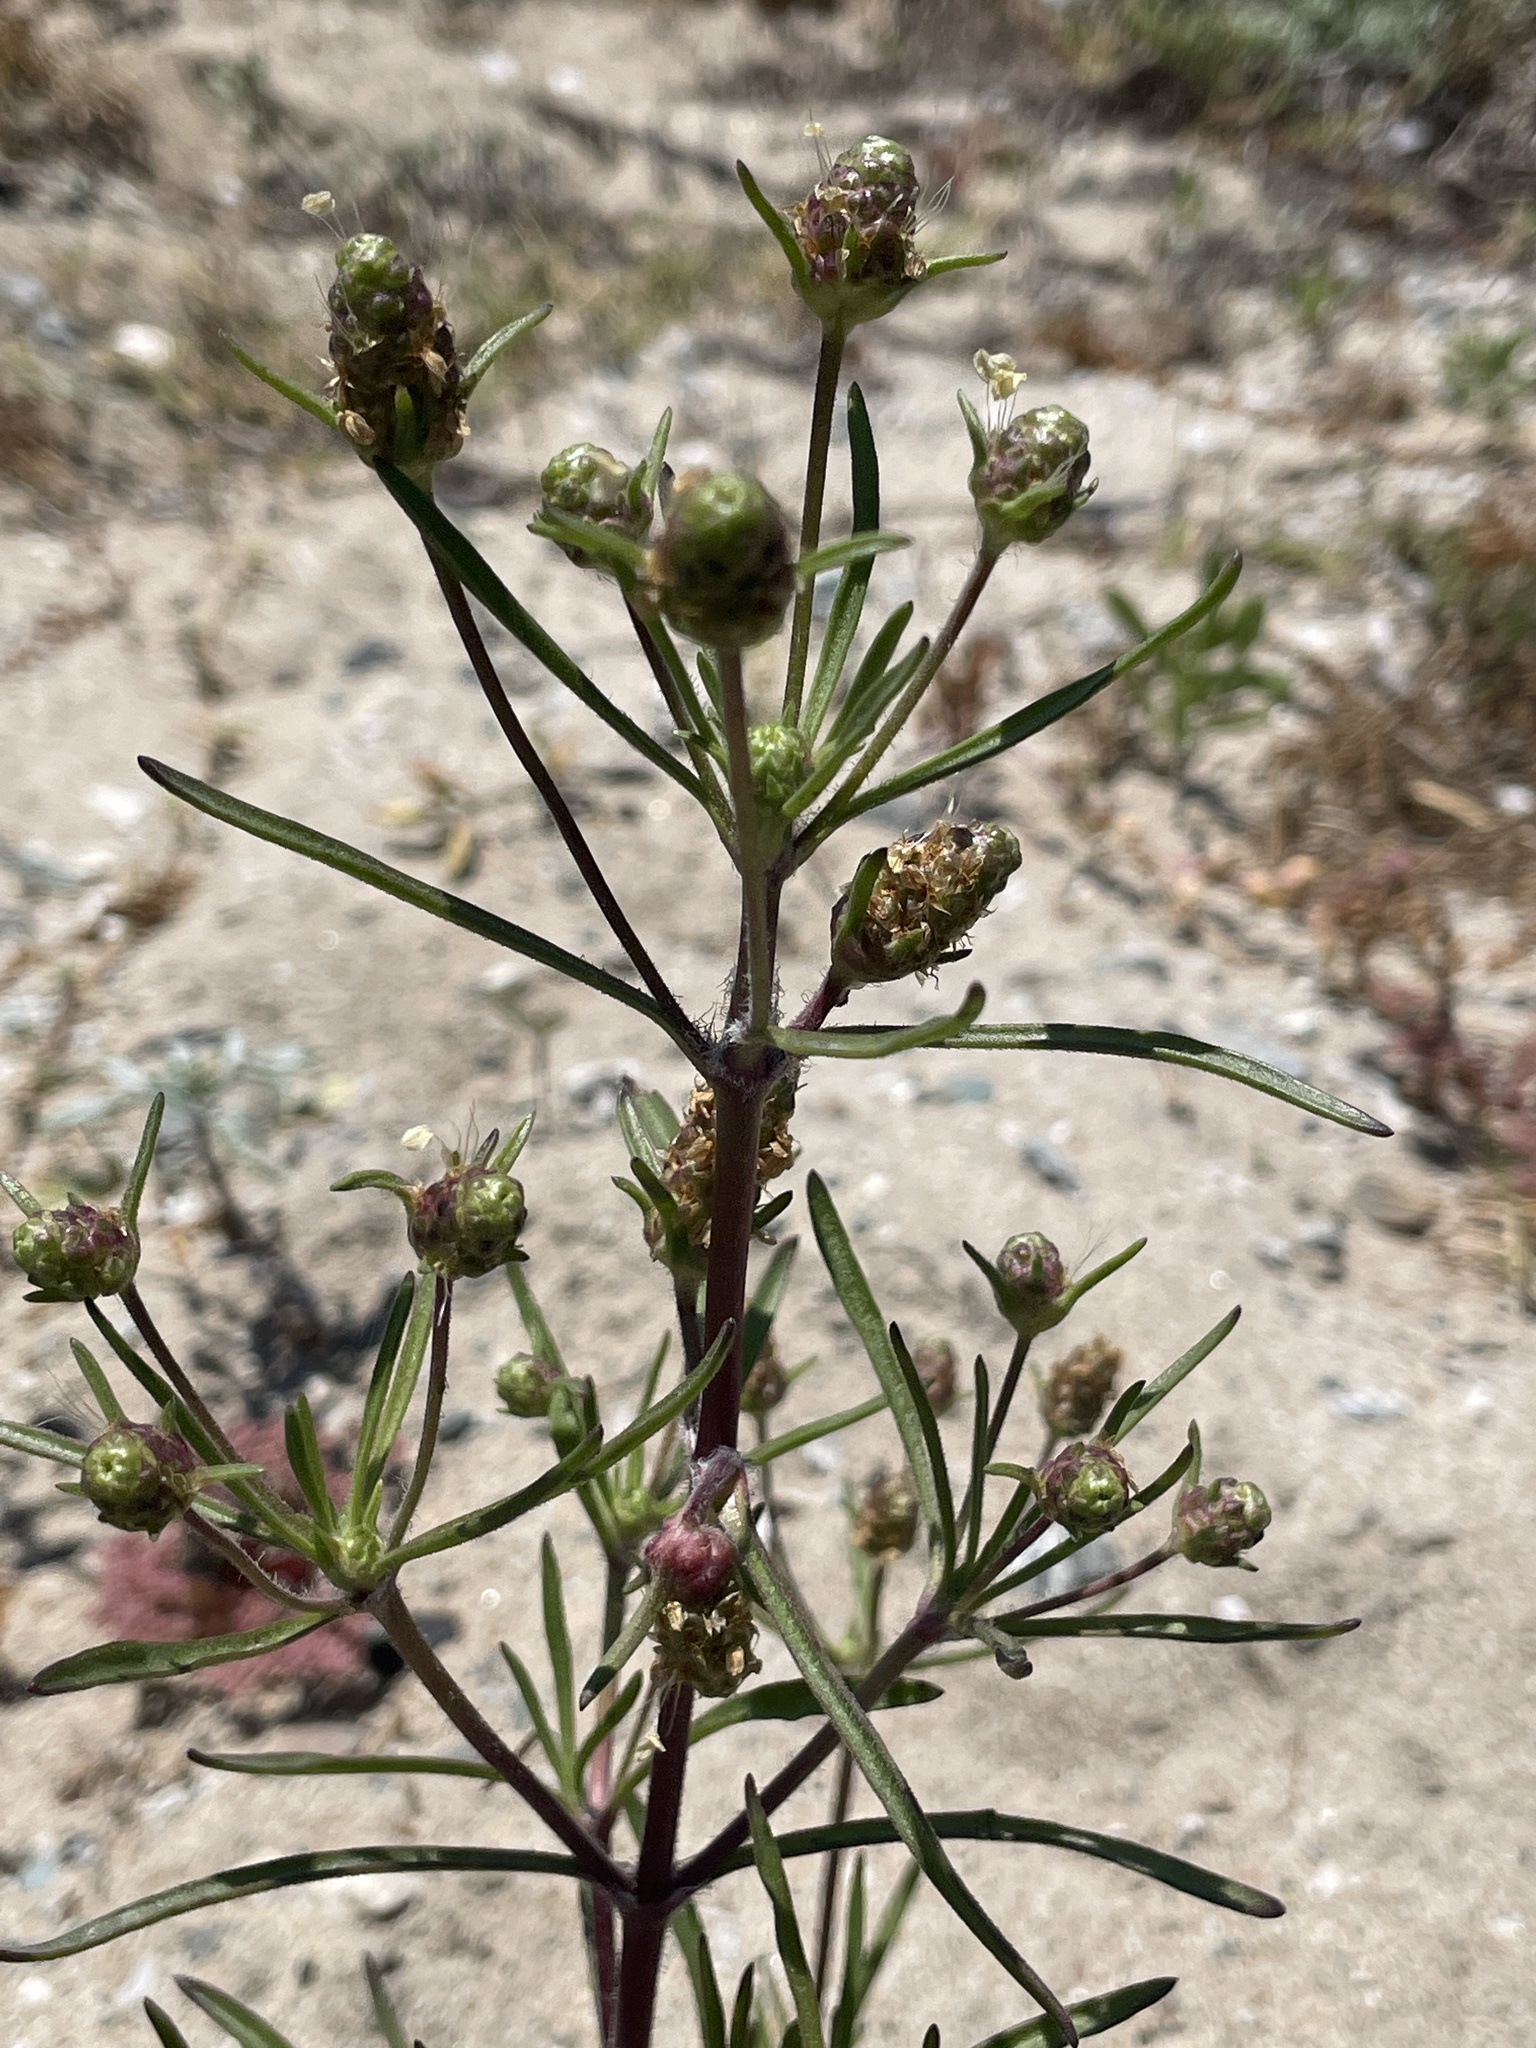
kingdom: Plantae
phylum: Tracheophyta
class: Magnoliopsida
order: Lamiales
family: Plantaginaceae
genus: Plantago
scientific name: Plantago arenaria
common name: Branched plantain
